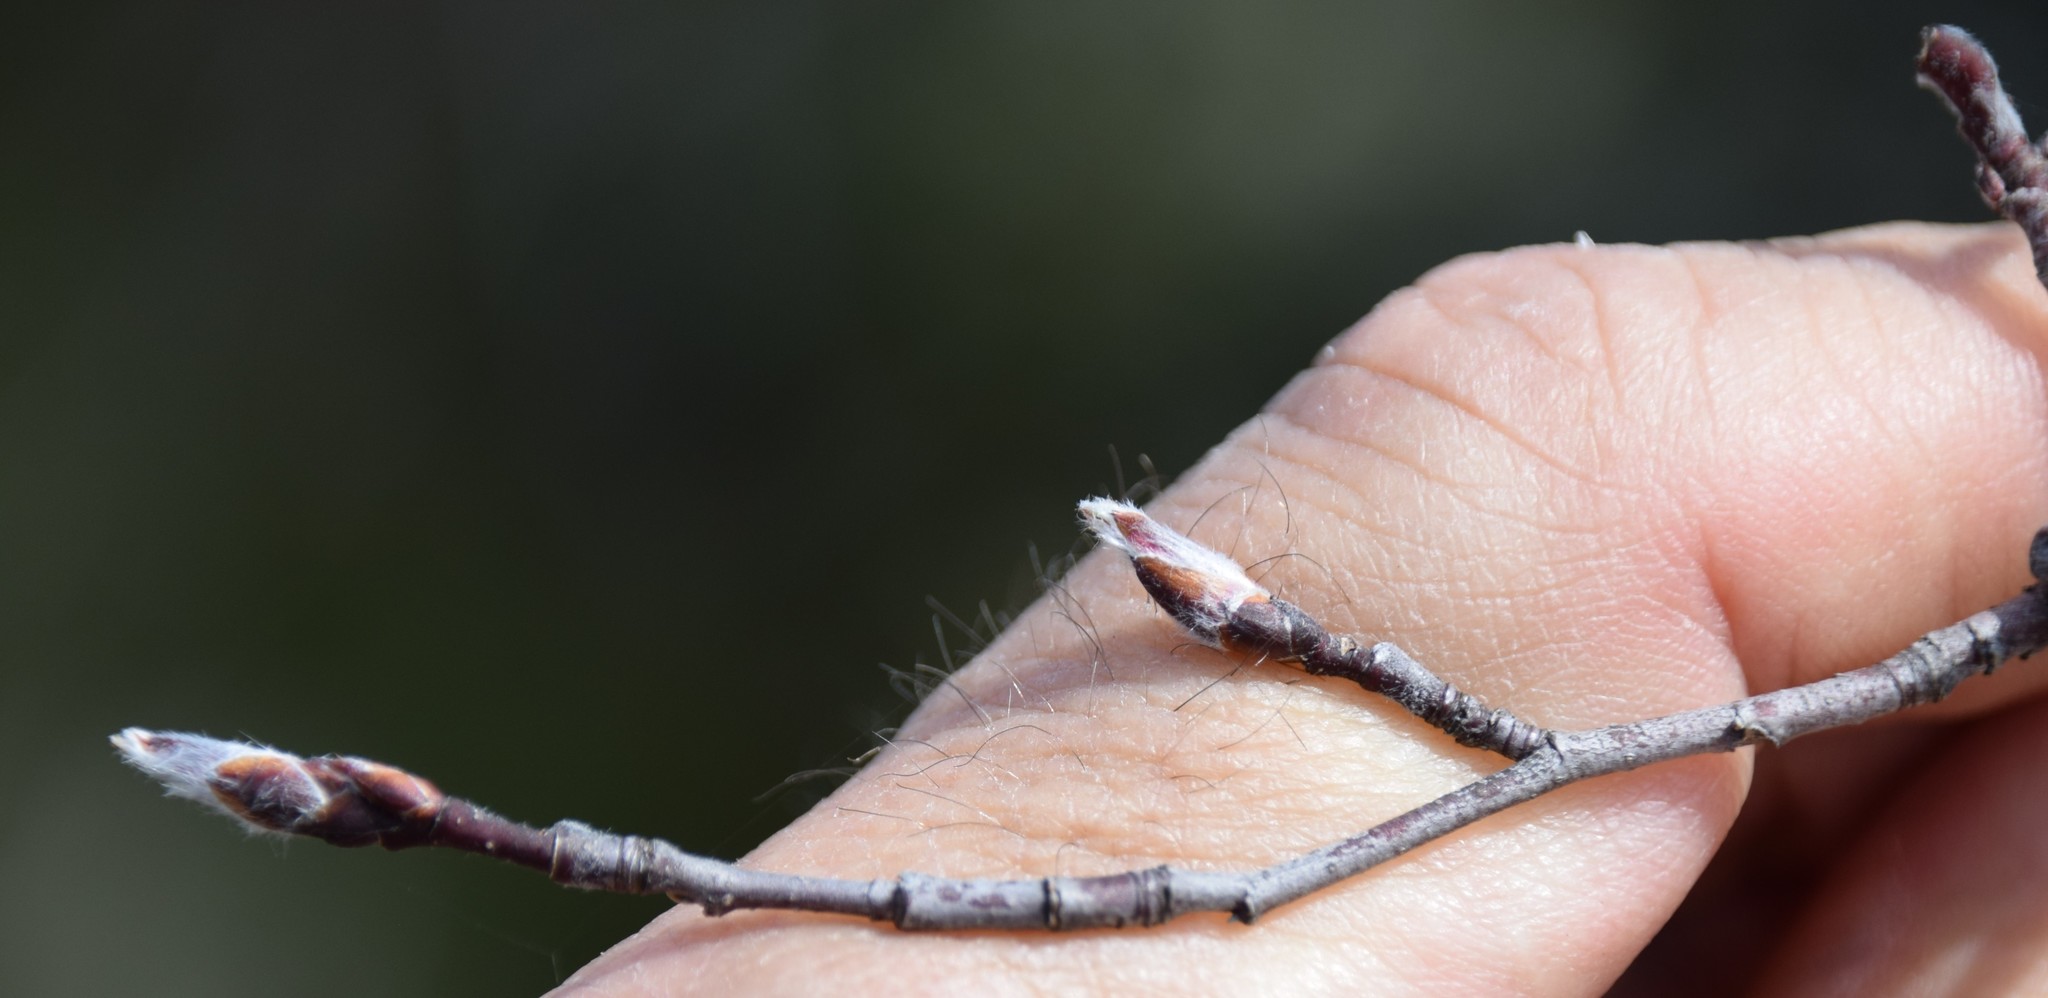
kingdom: Plantae
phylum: Tracheophyta
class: Magnoliopsida
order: Rosales
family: Rosaceae
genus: Amelanchier
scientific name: Amelanchier
